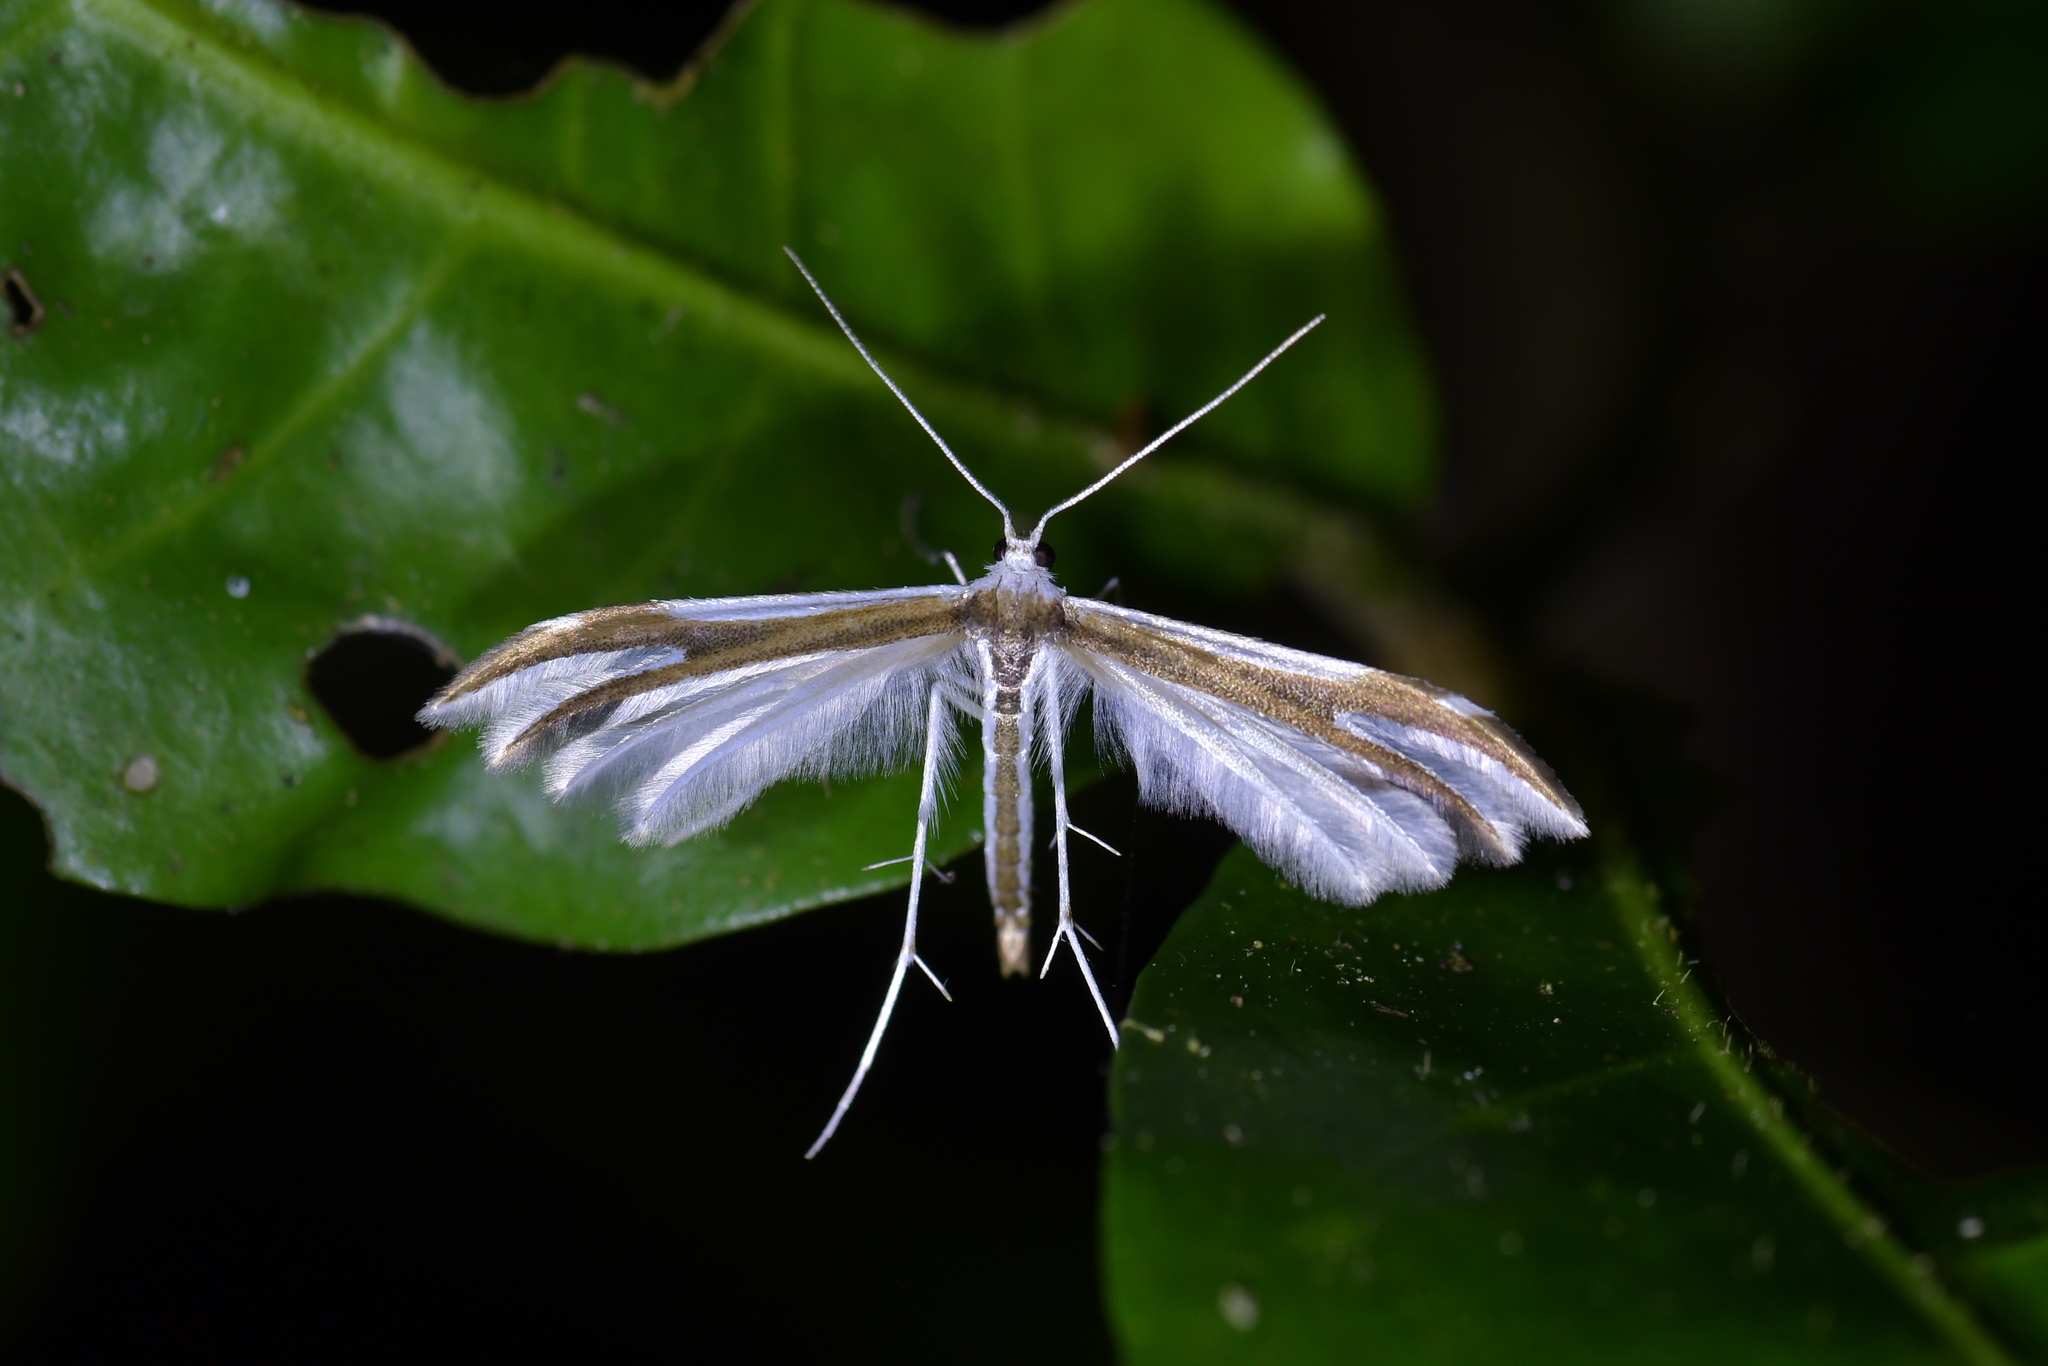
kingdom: Animalia
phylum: Arthropoda
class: Insecta
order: Lepidoptera
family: Pterophoridae
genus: Pterophorus
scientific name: Pterophorus furcatalis
